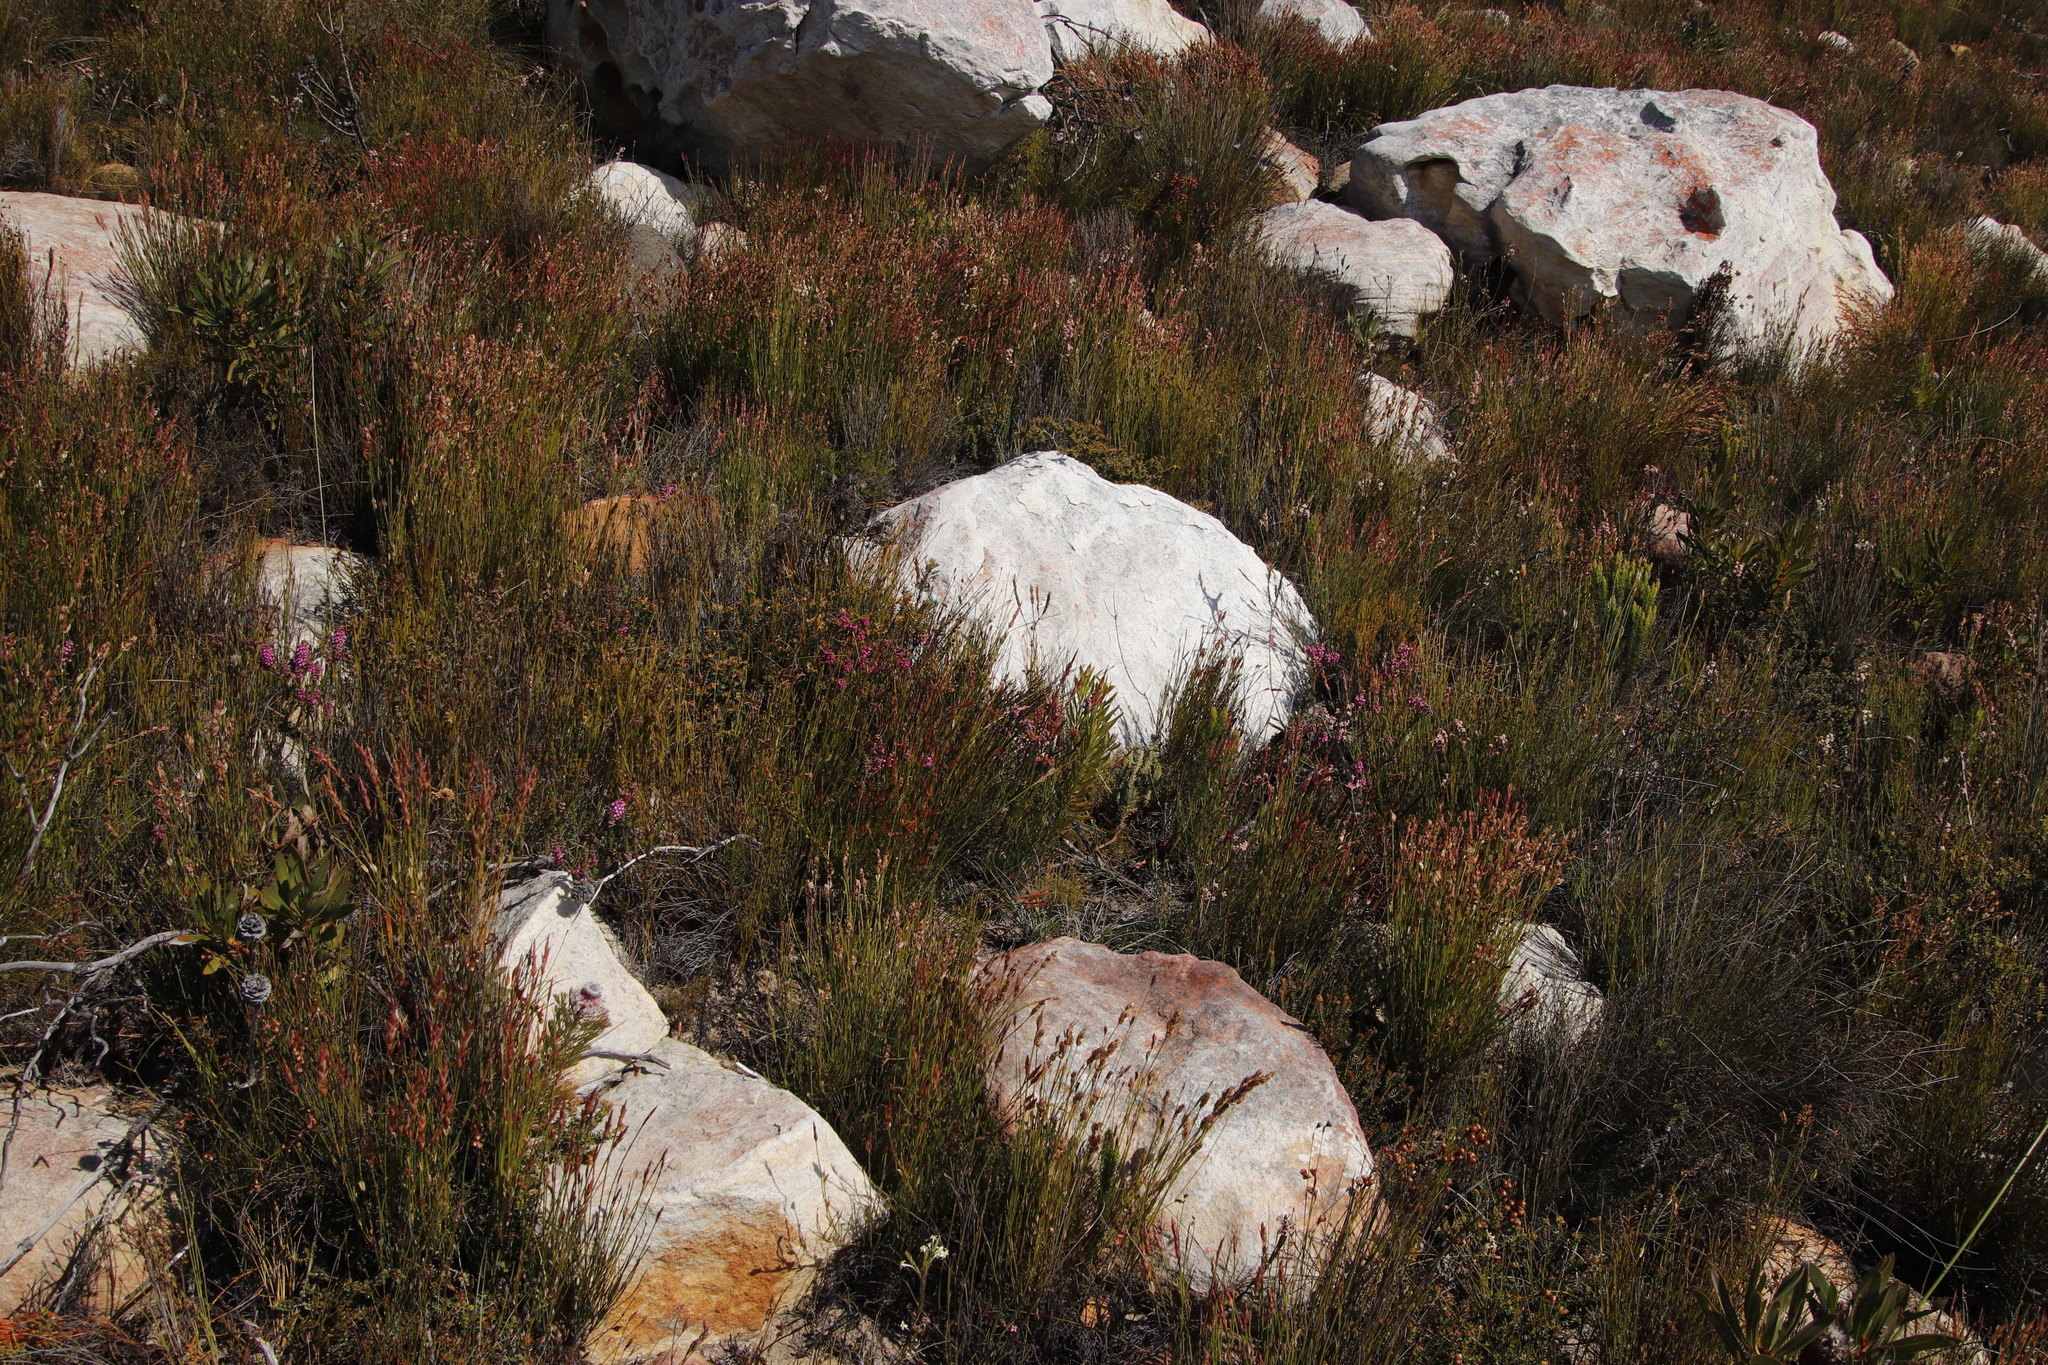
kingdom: Plantae
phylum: Tracheophyta
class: Magnoliopsida
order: Ericales
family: Ericaceae
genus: Erica
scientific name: Erica pulchella
